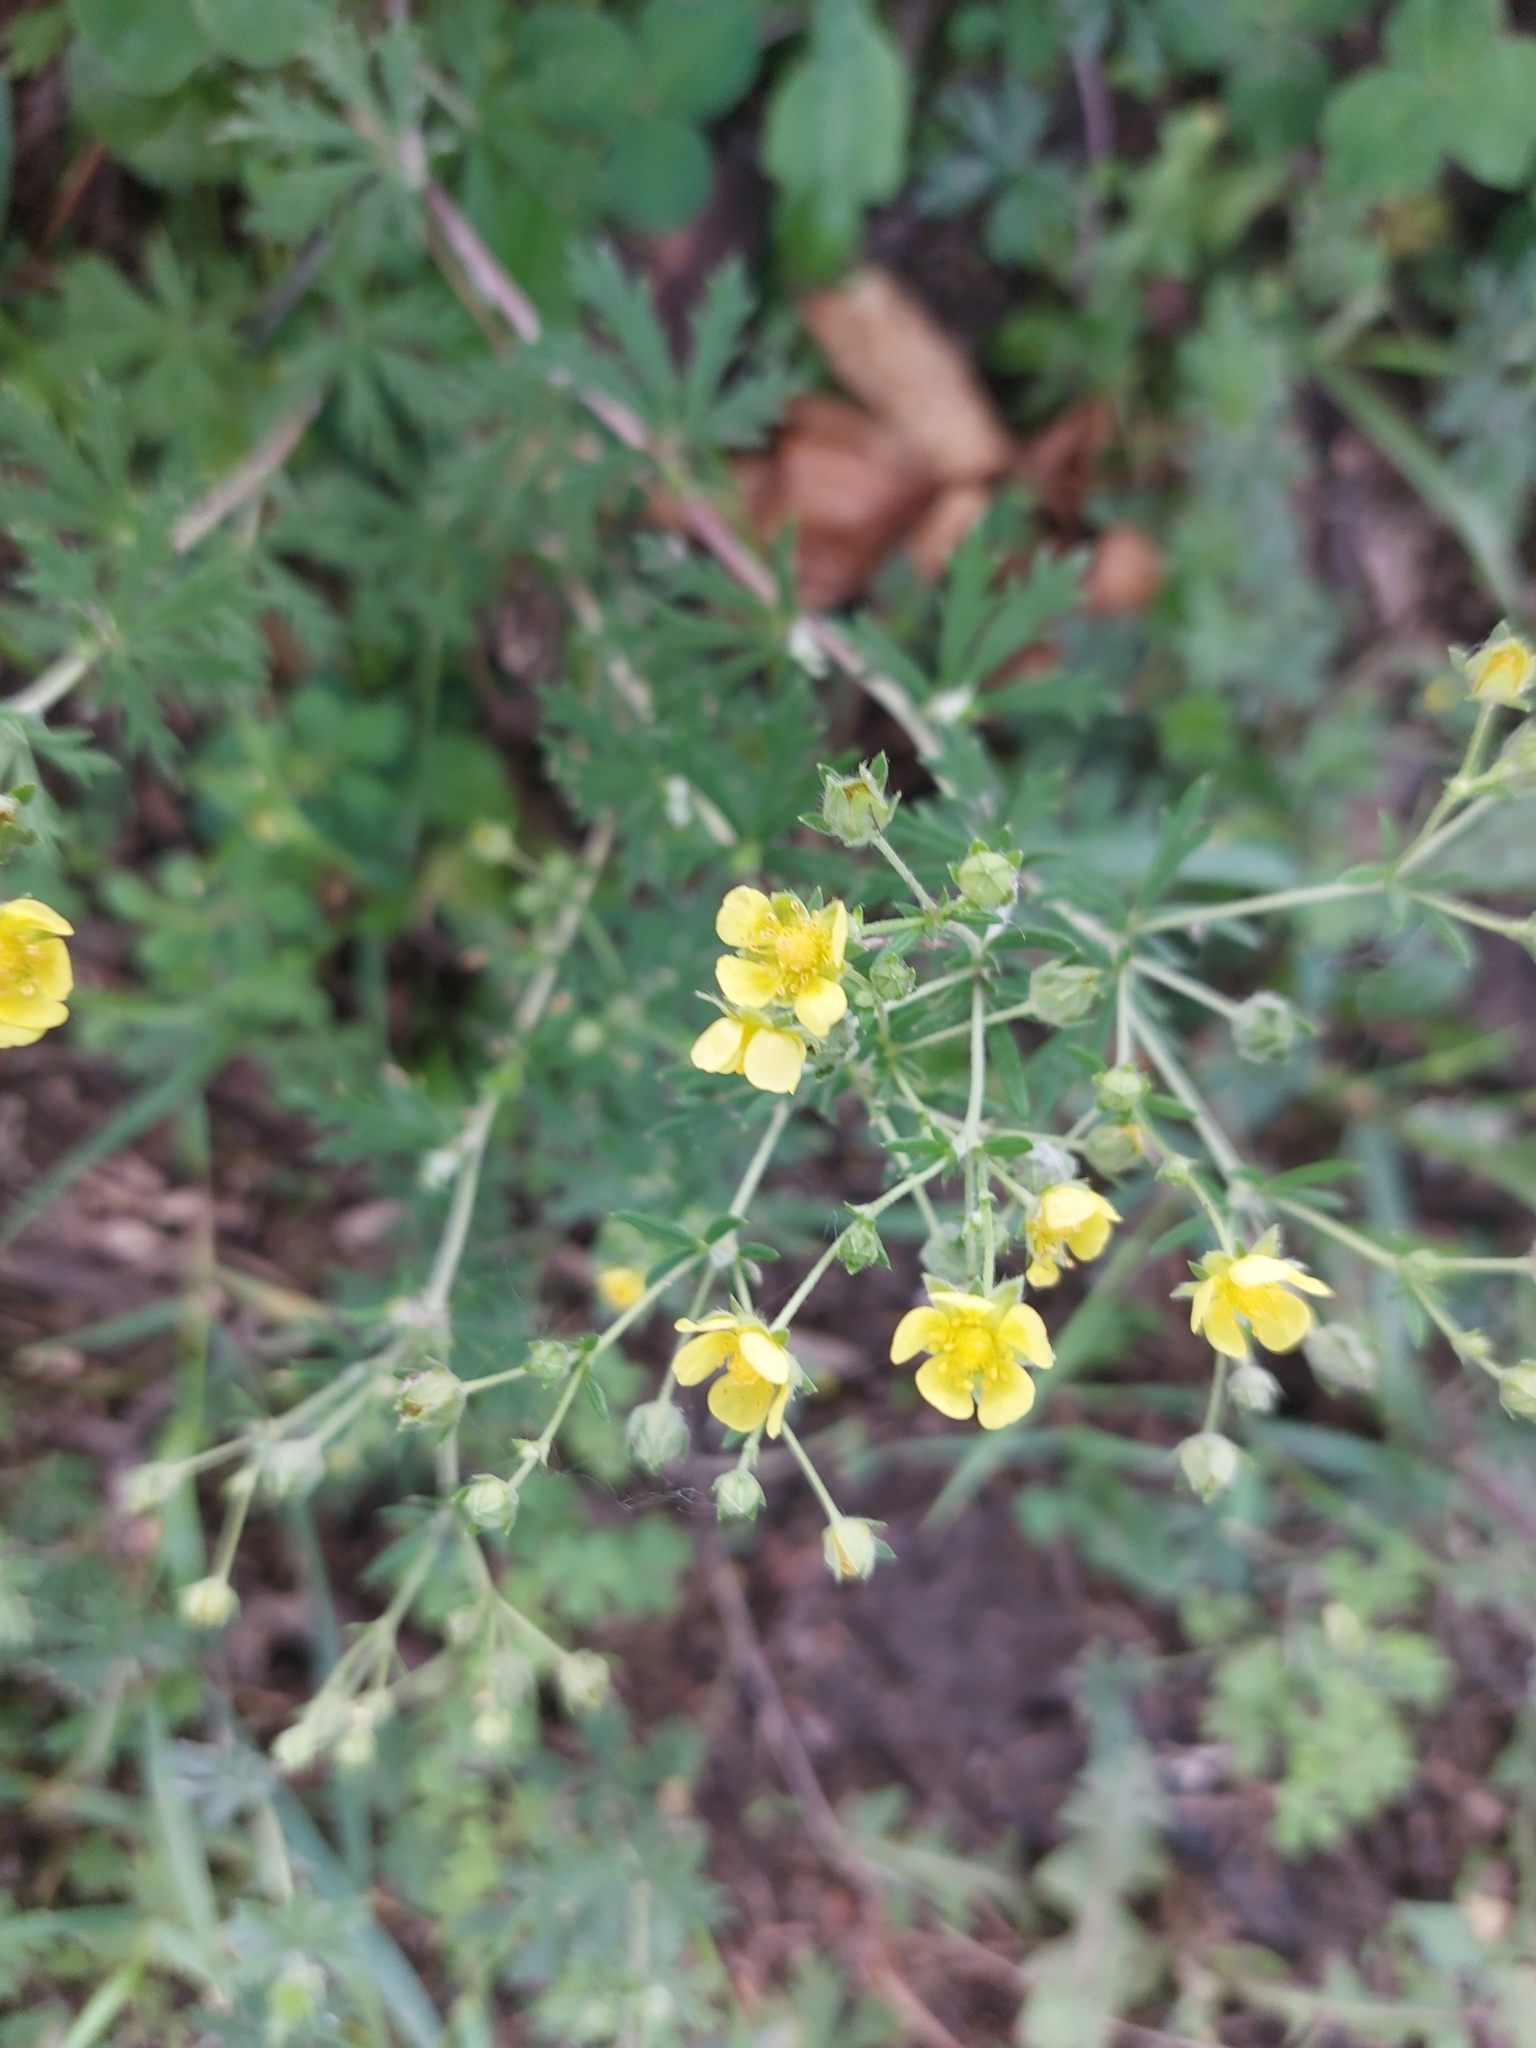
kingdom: Plantae
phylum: Tracheophyta
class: Magnoliopsida
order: Rosales
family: Rosaceae
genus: Potentilla
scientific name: Potentilla argentea
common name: Hoary cinquefoil
